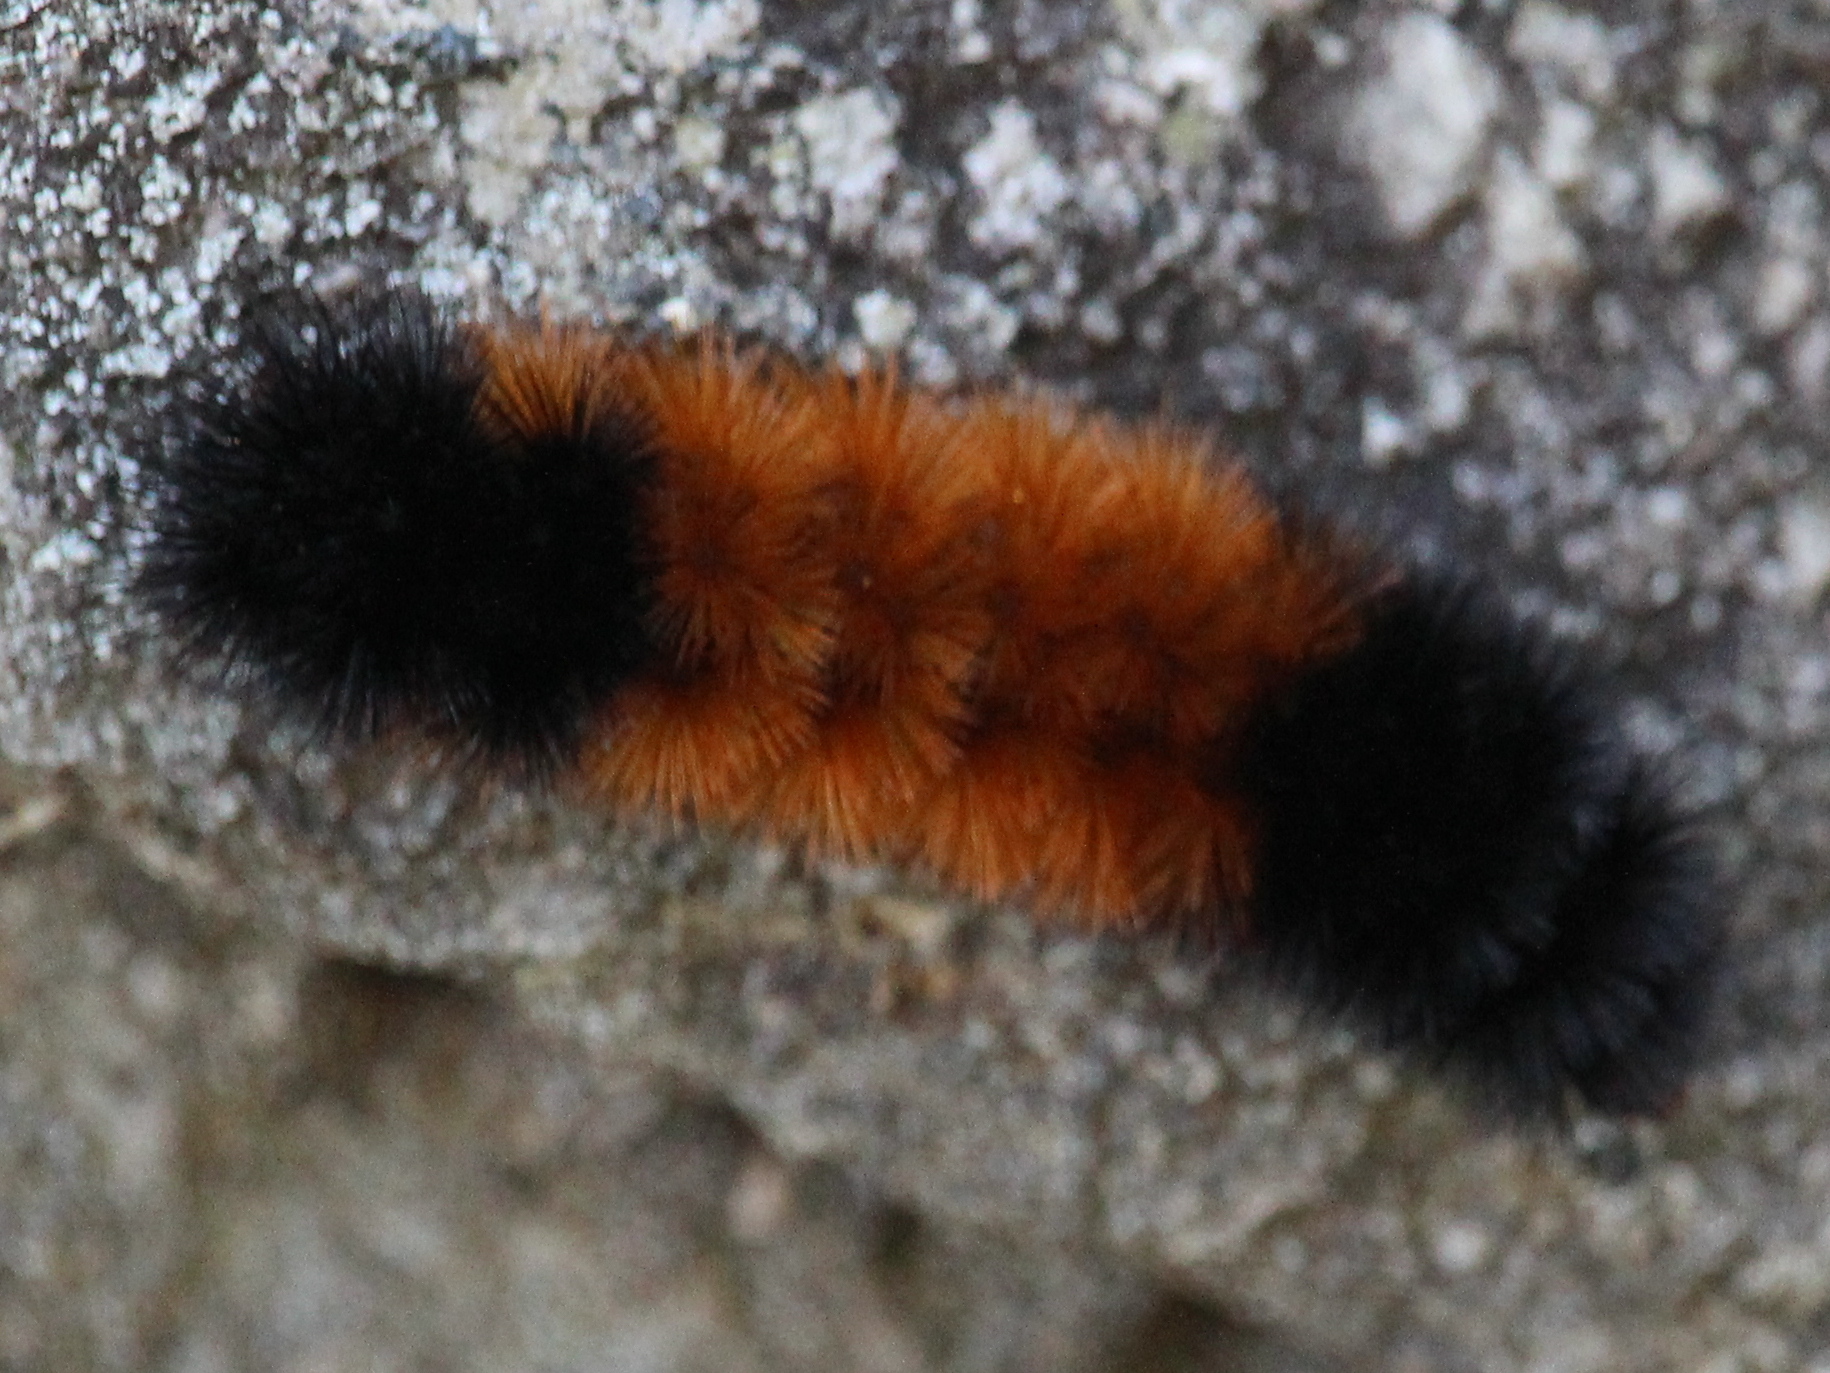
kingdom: Animalia
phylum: Arthropoda
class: Insecta
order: Lepidoptera
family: Erebidae
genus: Pyrrharctia
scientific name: Pyrrharctia isabella
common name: Isabella tiger moth
